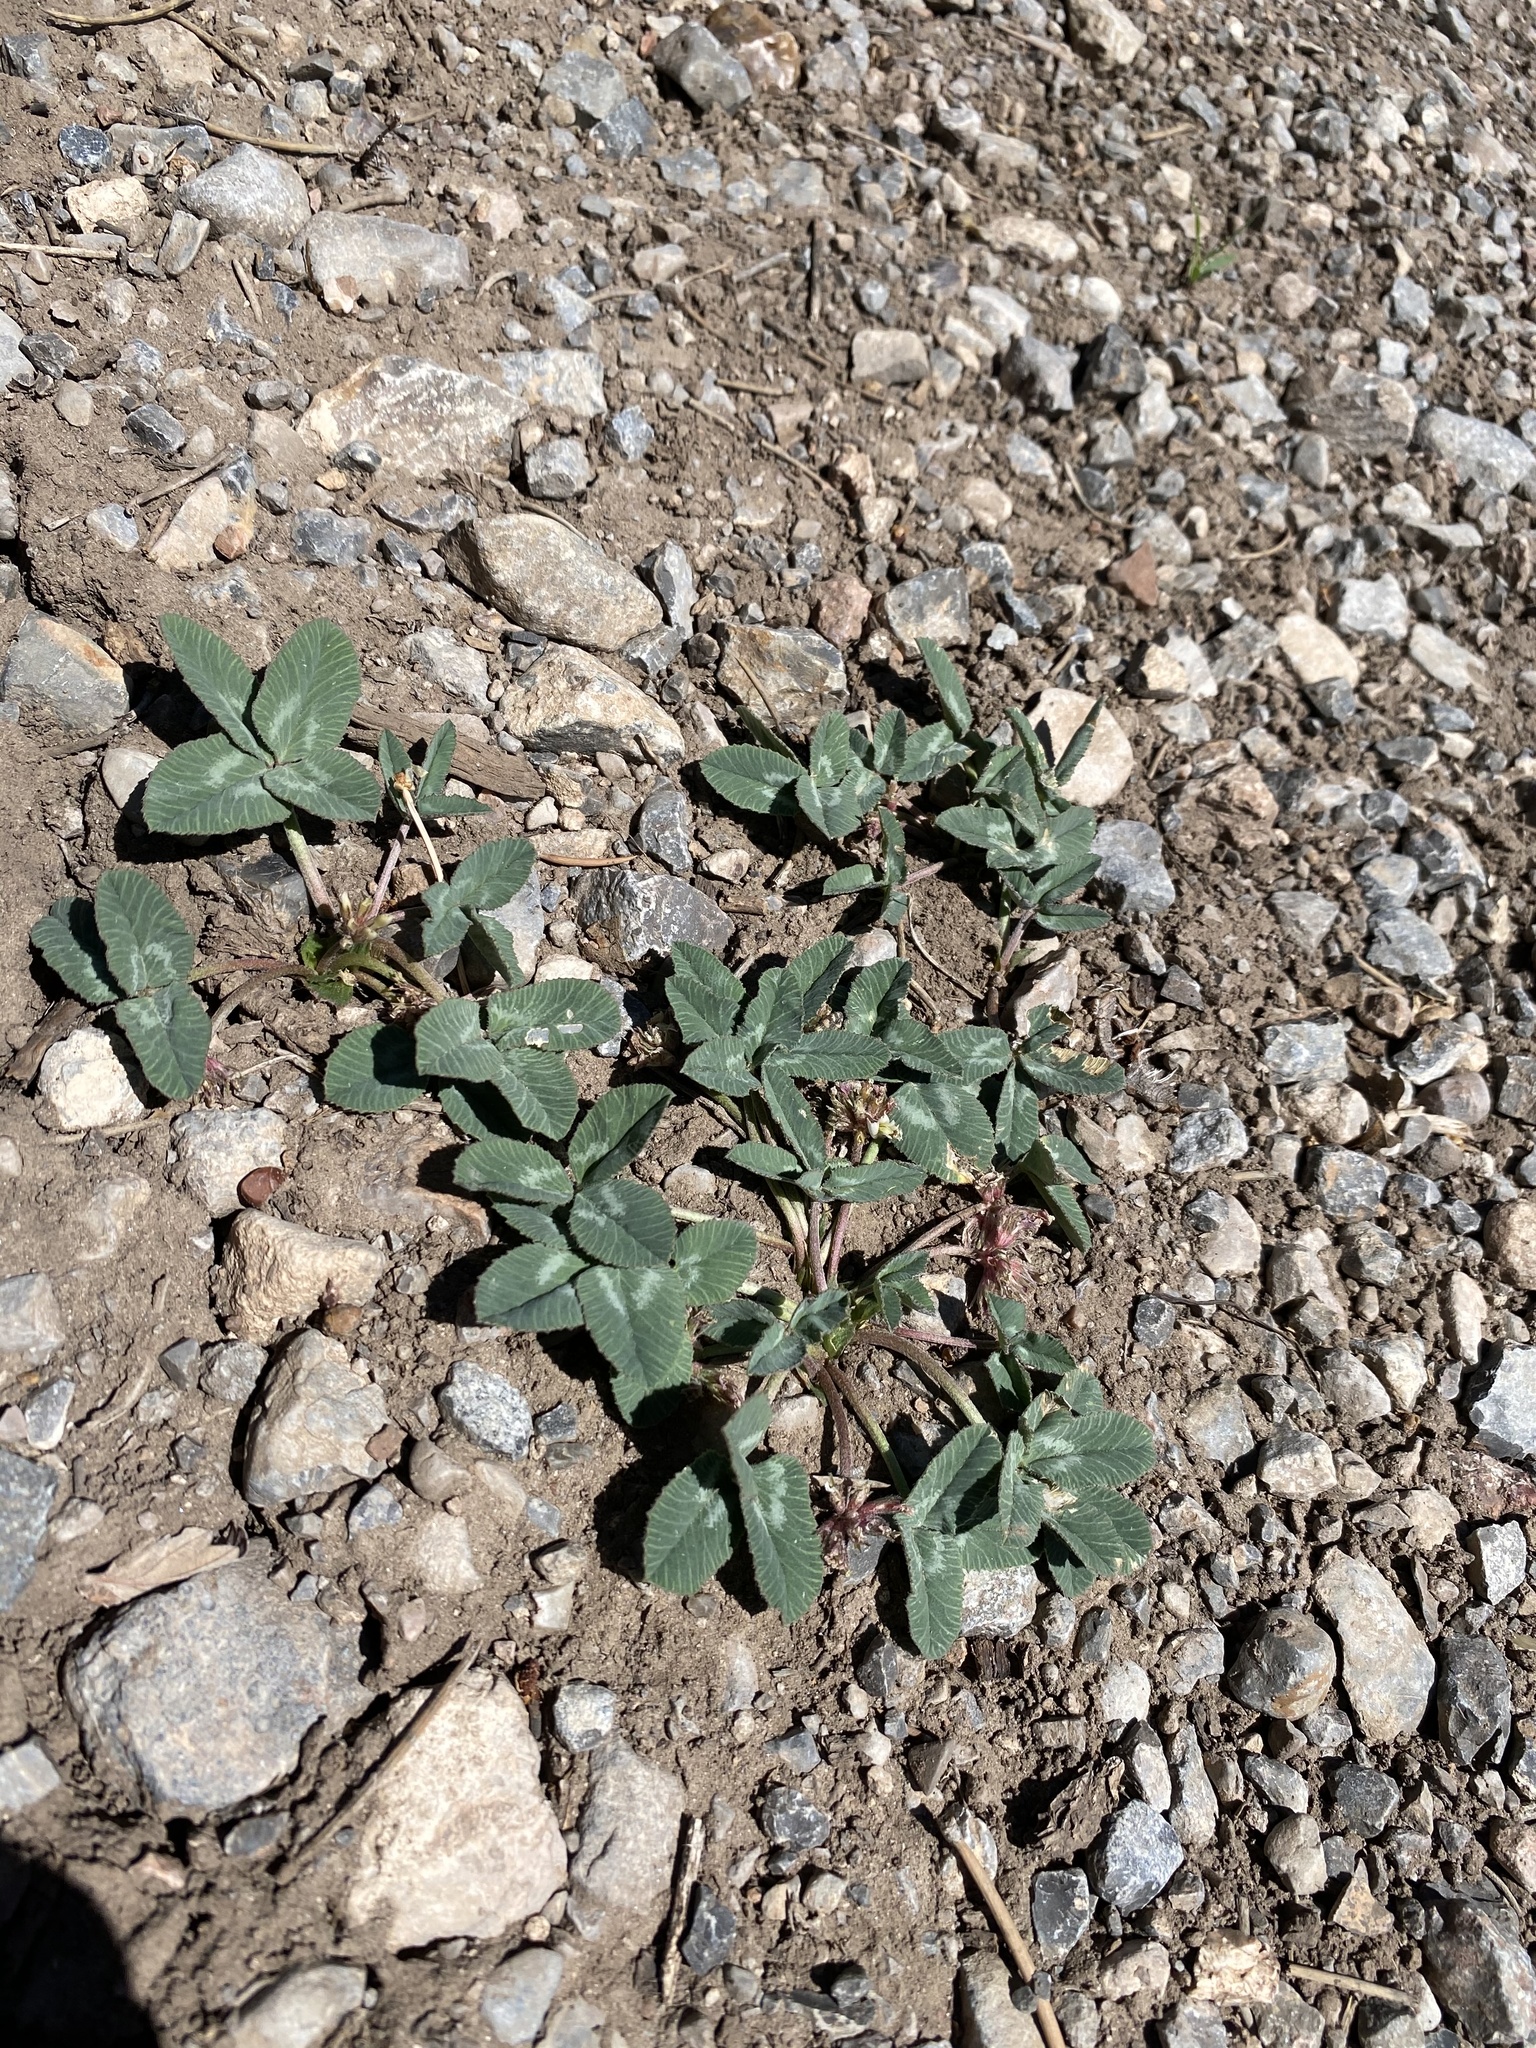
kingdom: Plantae
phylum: Tracheophyta
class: Magnoliopsida
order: Fabales
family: Fabaceae
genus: Trifolium
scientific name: Trifolium gymnocarpon
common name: Tufted clover
